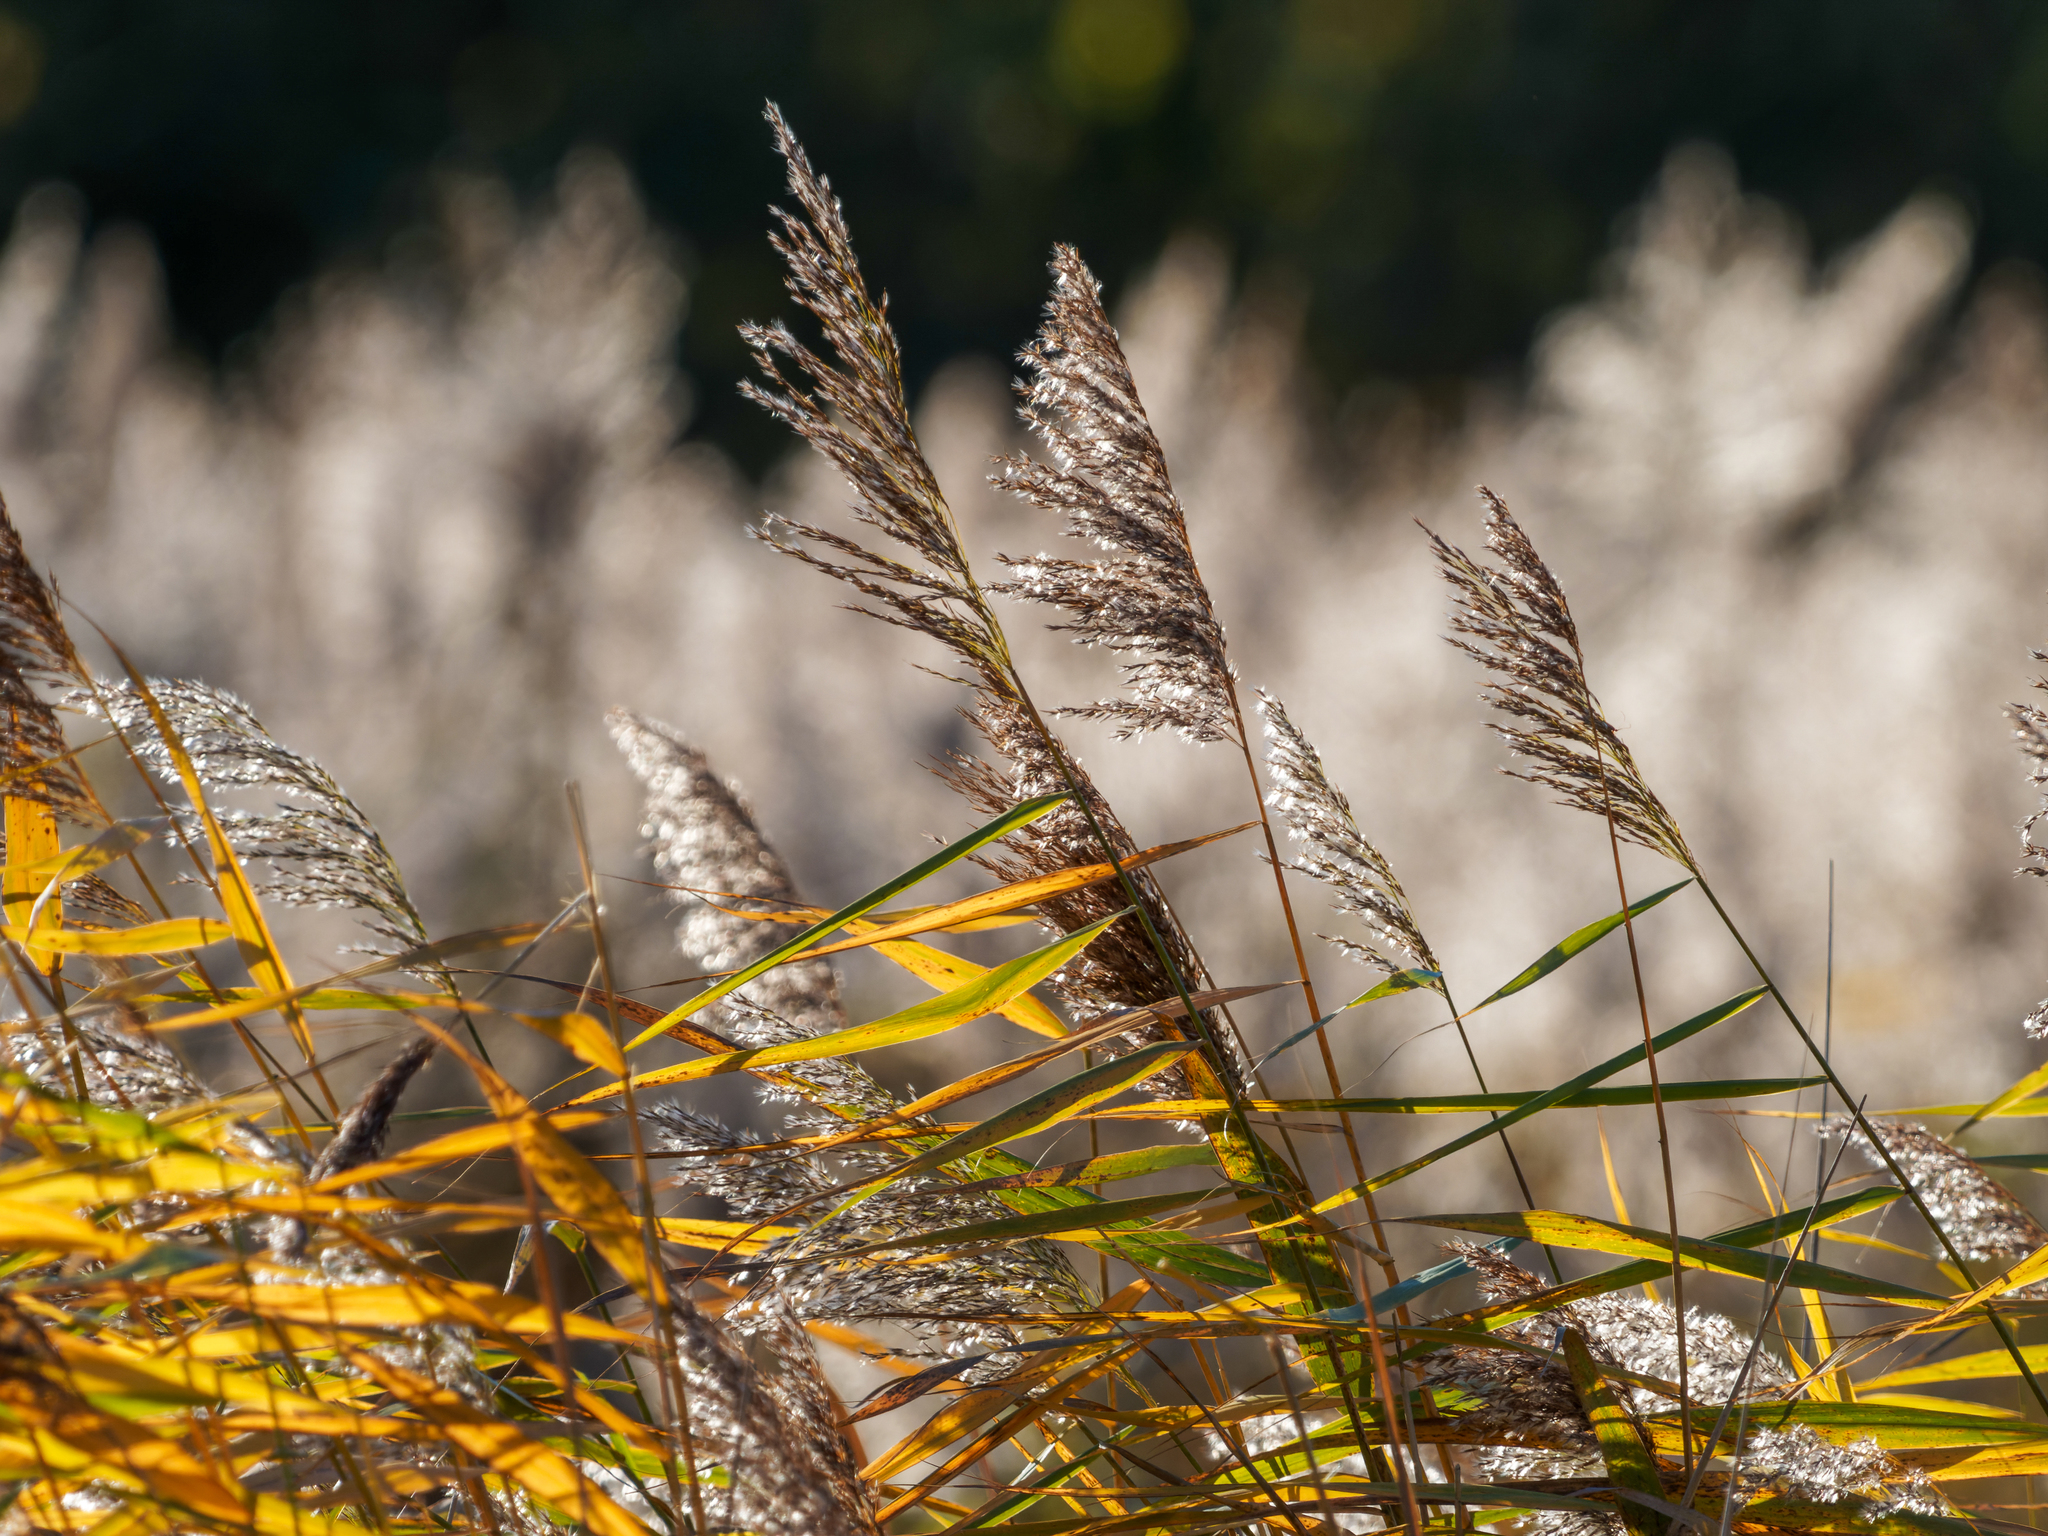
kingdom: Plantae
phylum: Tracheophyta
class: Liliopsida
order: Poales
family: Poaceae
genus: Phragmites
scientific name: Phragmites australis
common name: Common reed
